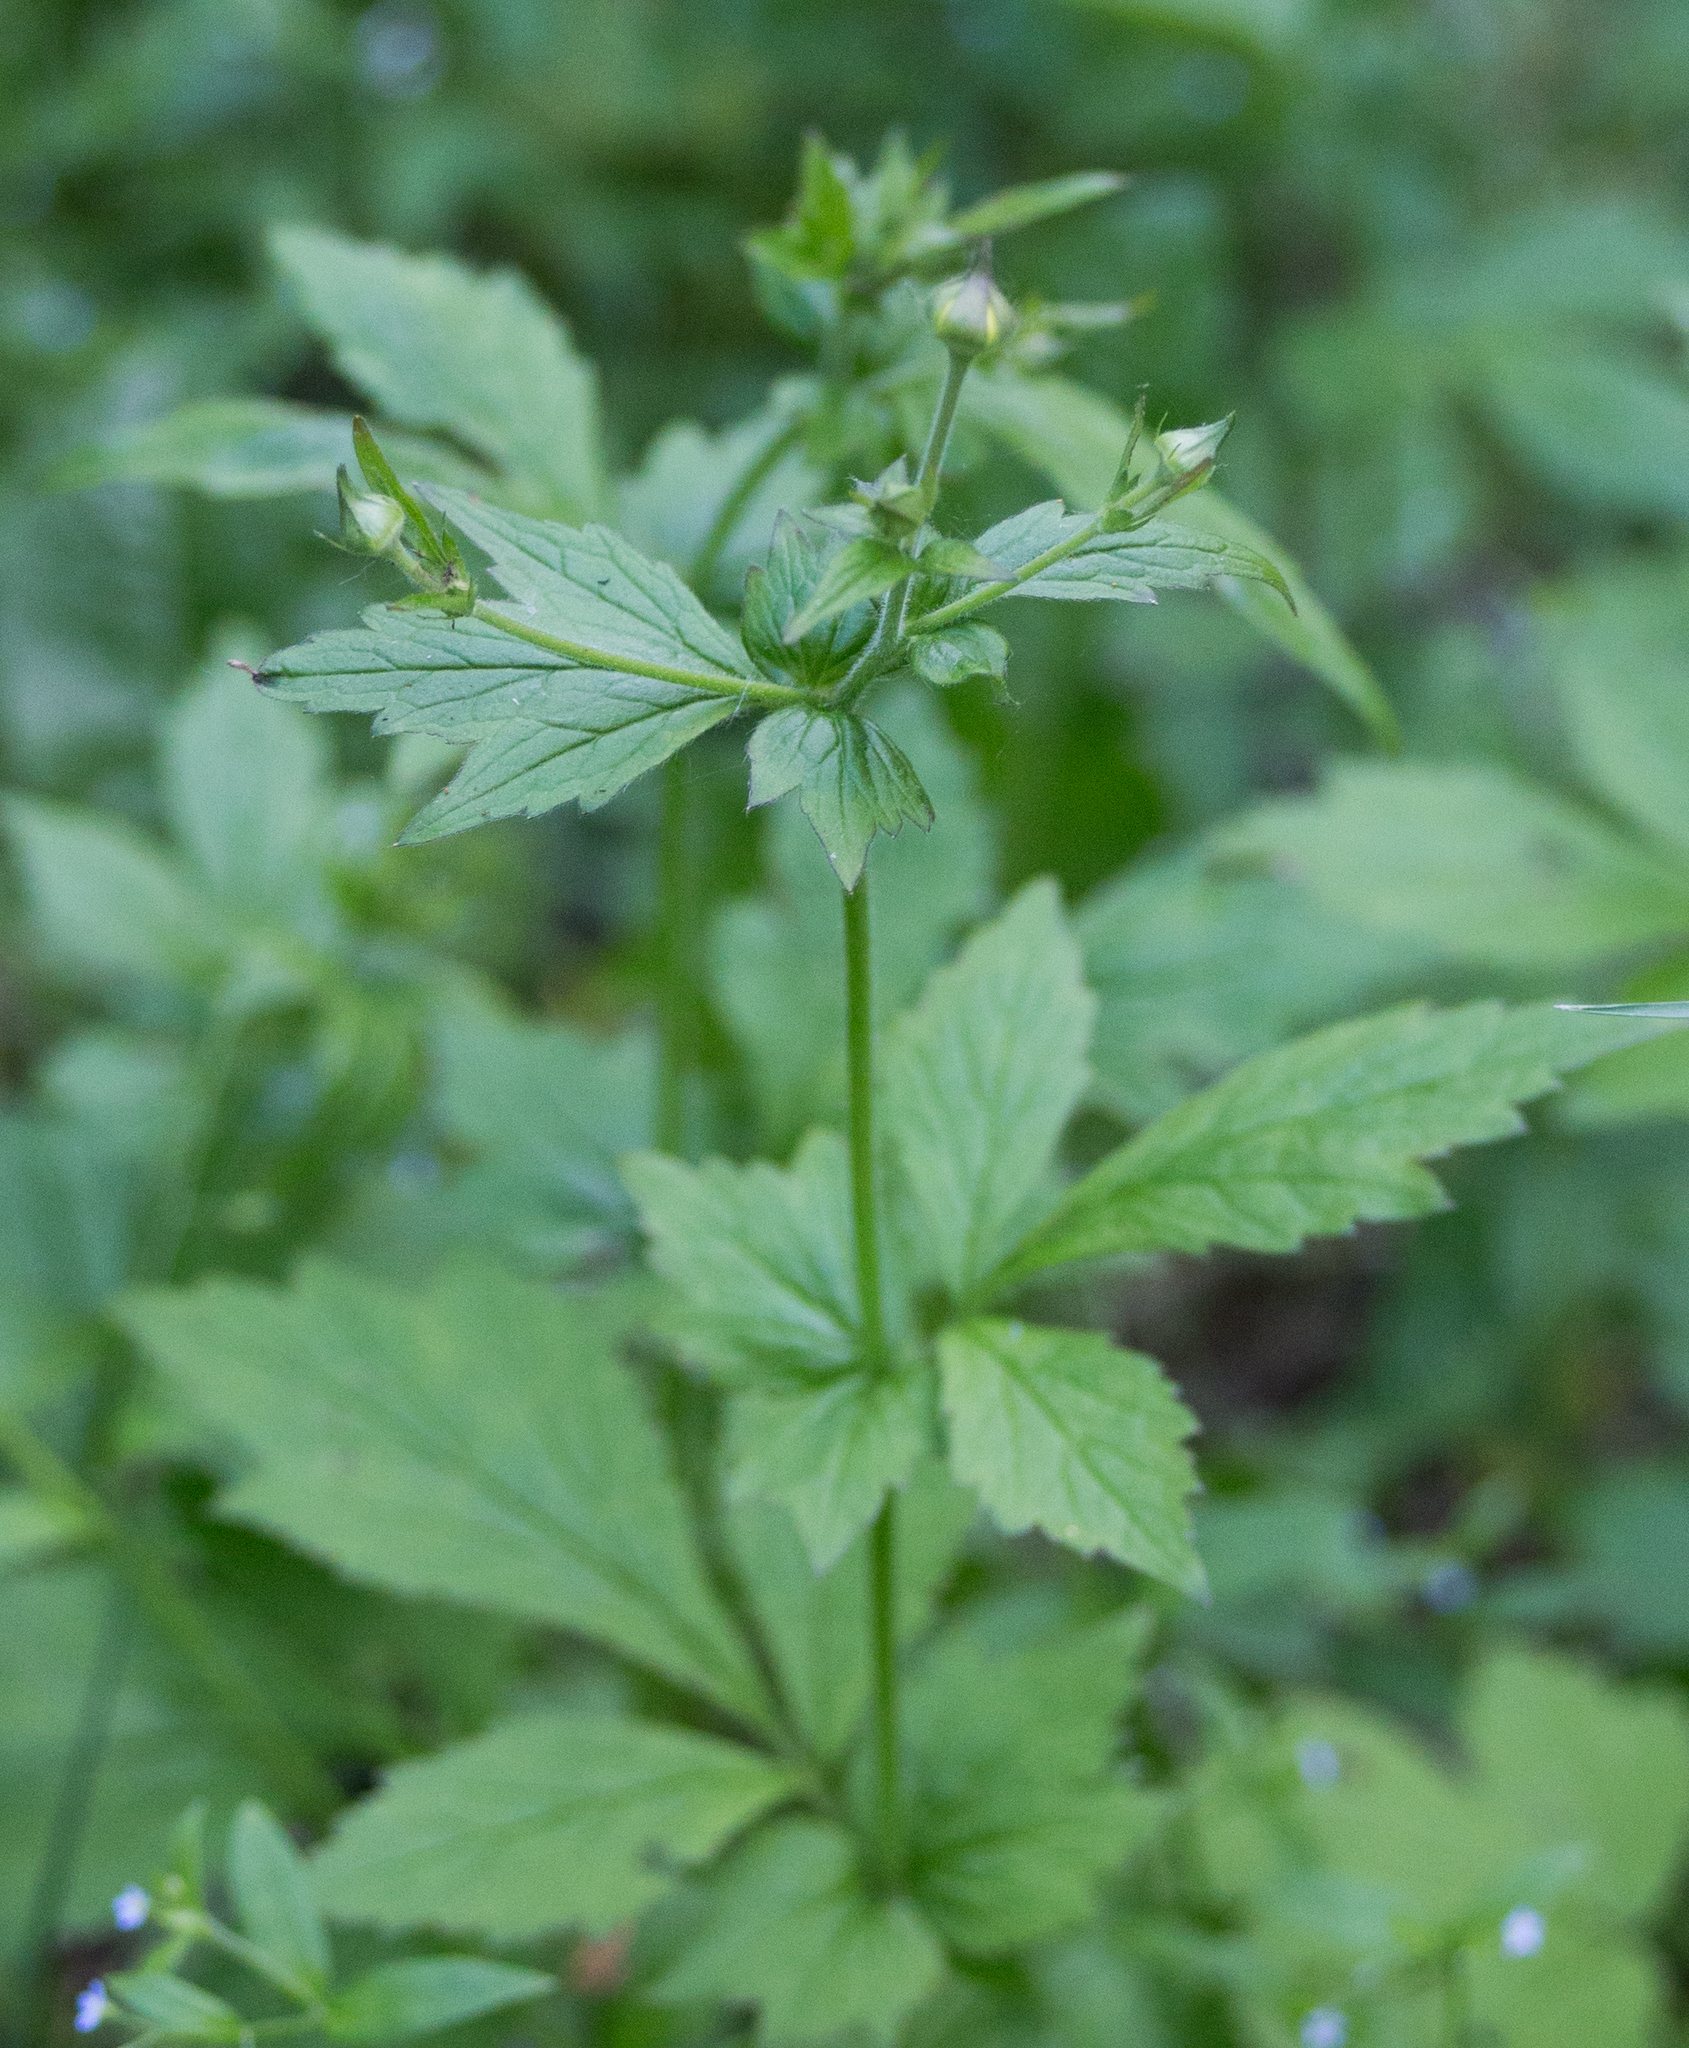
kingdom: Plantae
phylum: Tracheophyta
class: Magnoliopsida
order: Rosales
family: Rosaceae
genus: Geum
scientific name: Geum urbanum
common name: Wood avens
